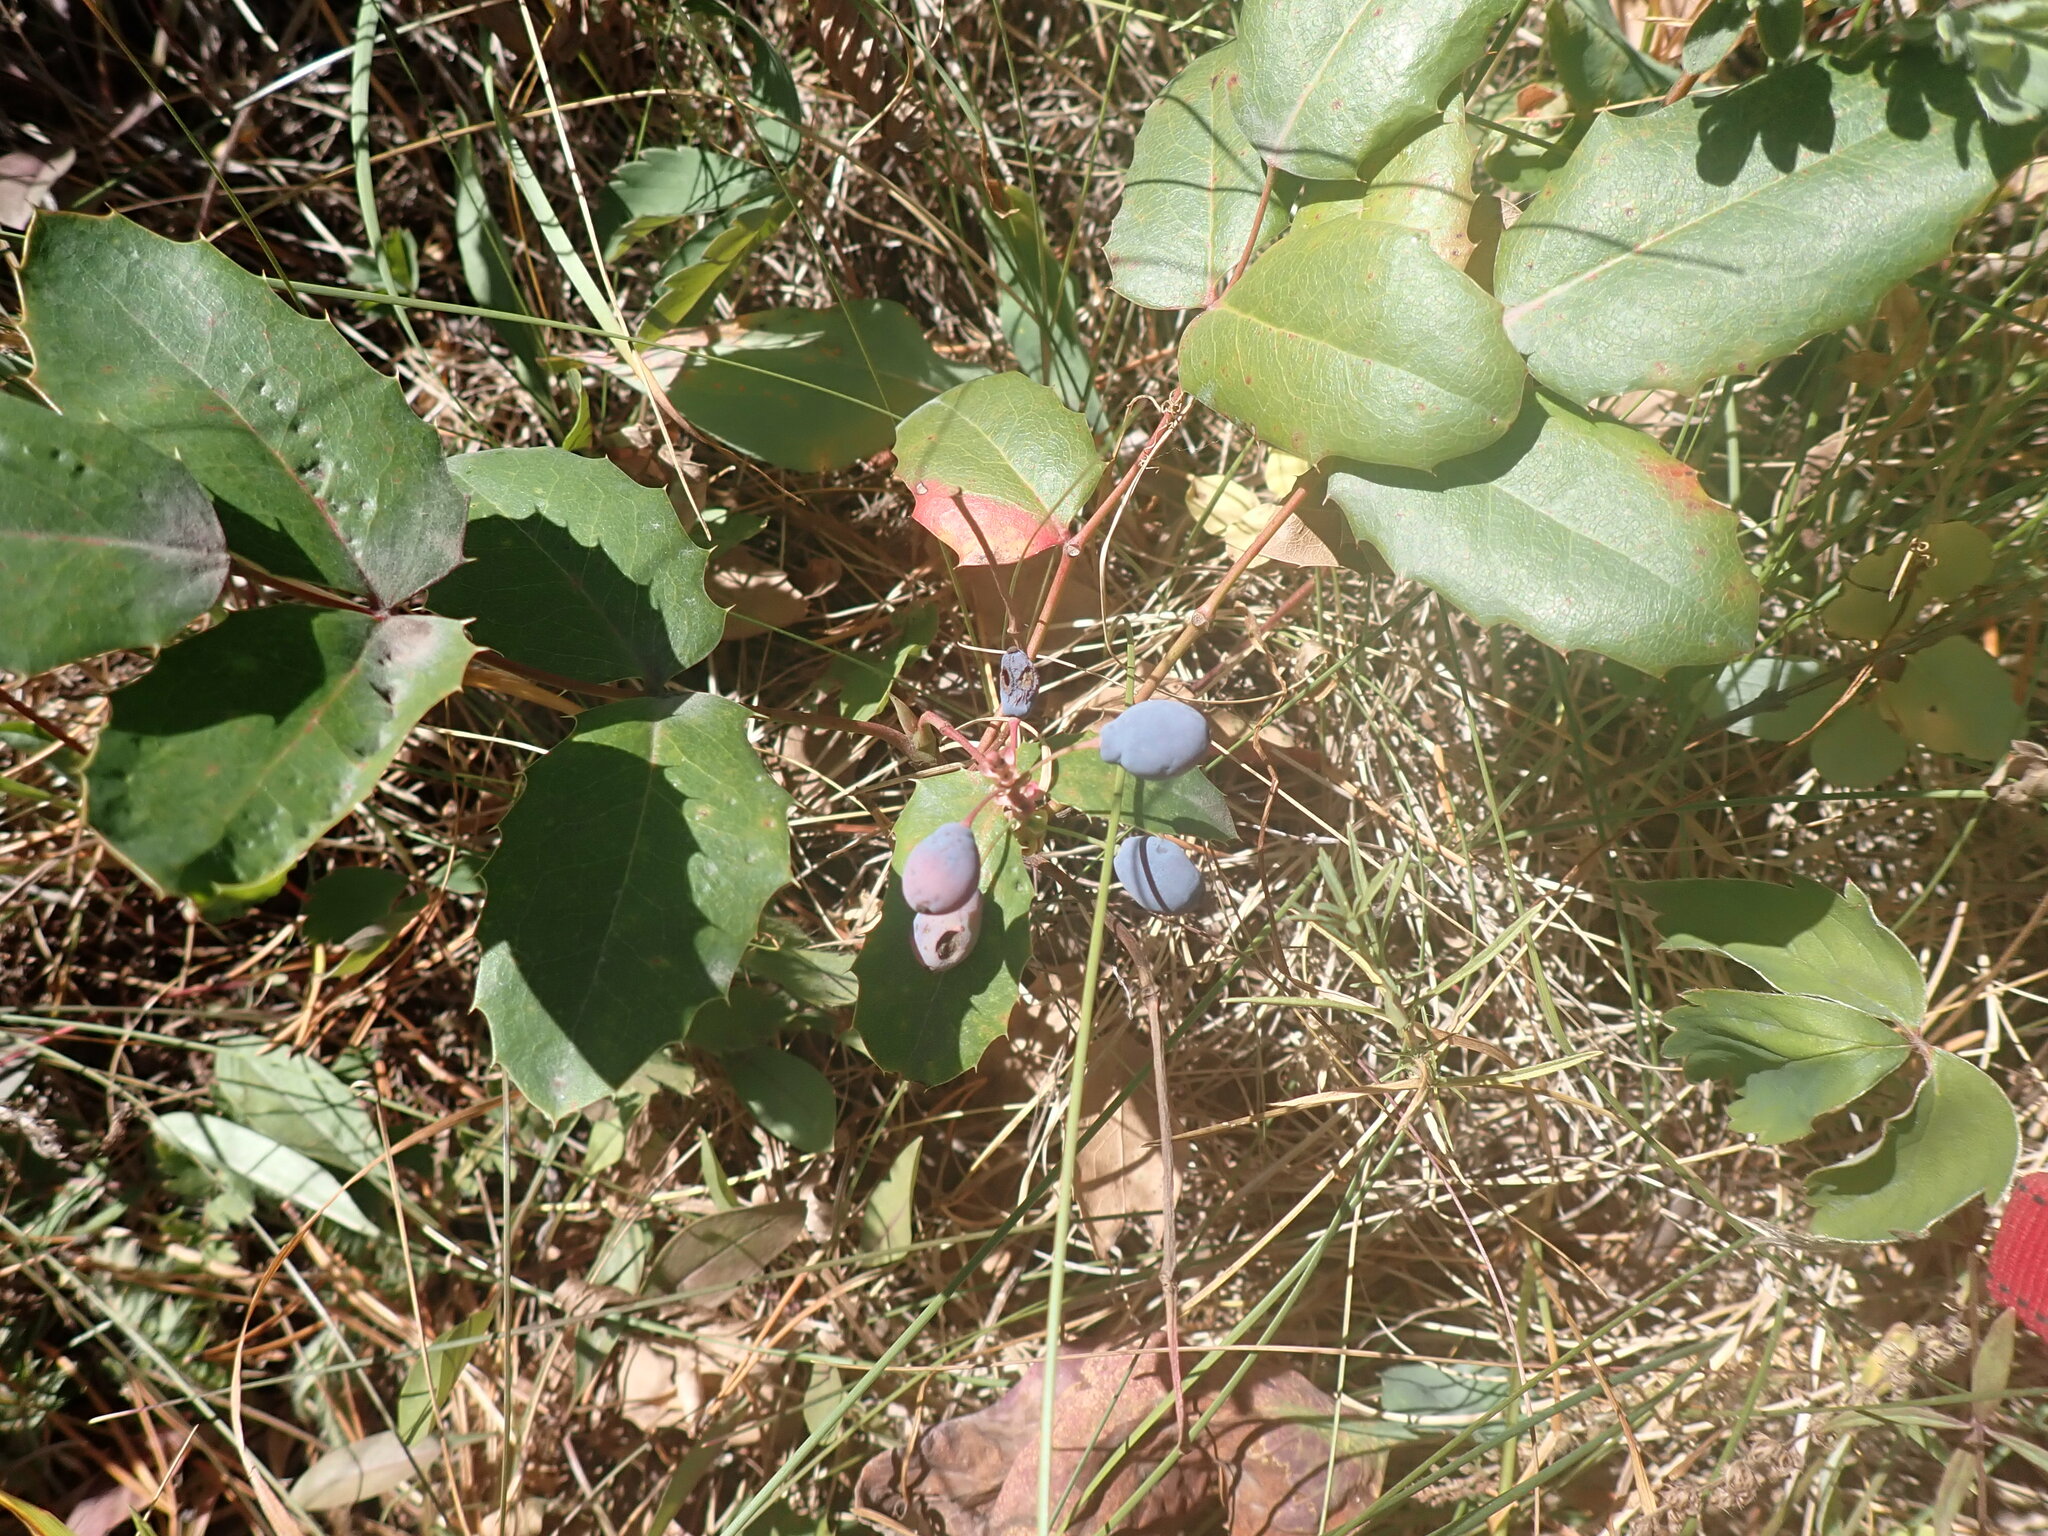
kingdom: Plantae
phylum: Tracheophyta
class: Magnoliopsida
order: Ranunculales
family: Berberidaceae
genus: Mahonia
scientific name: Mahonia repens
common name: Creeping oregon-grape
